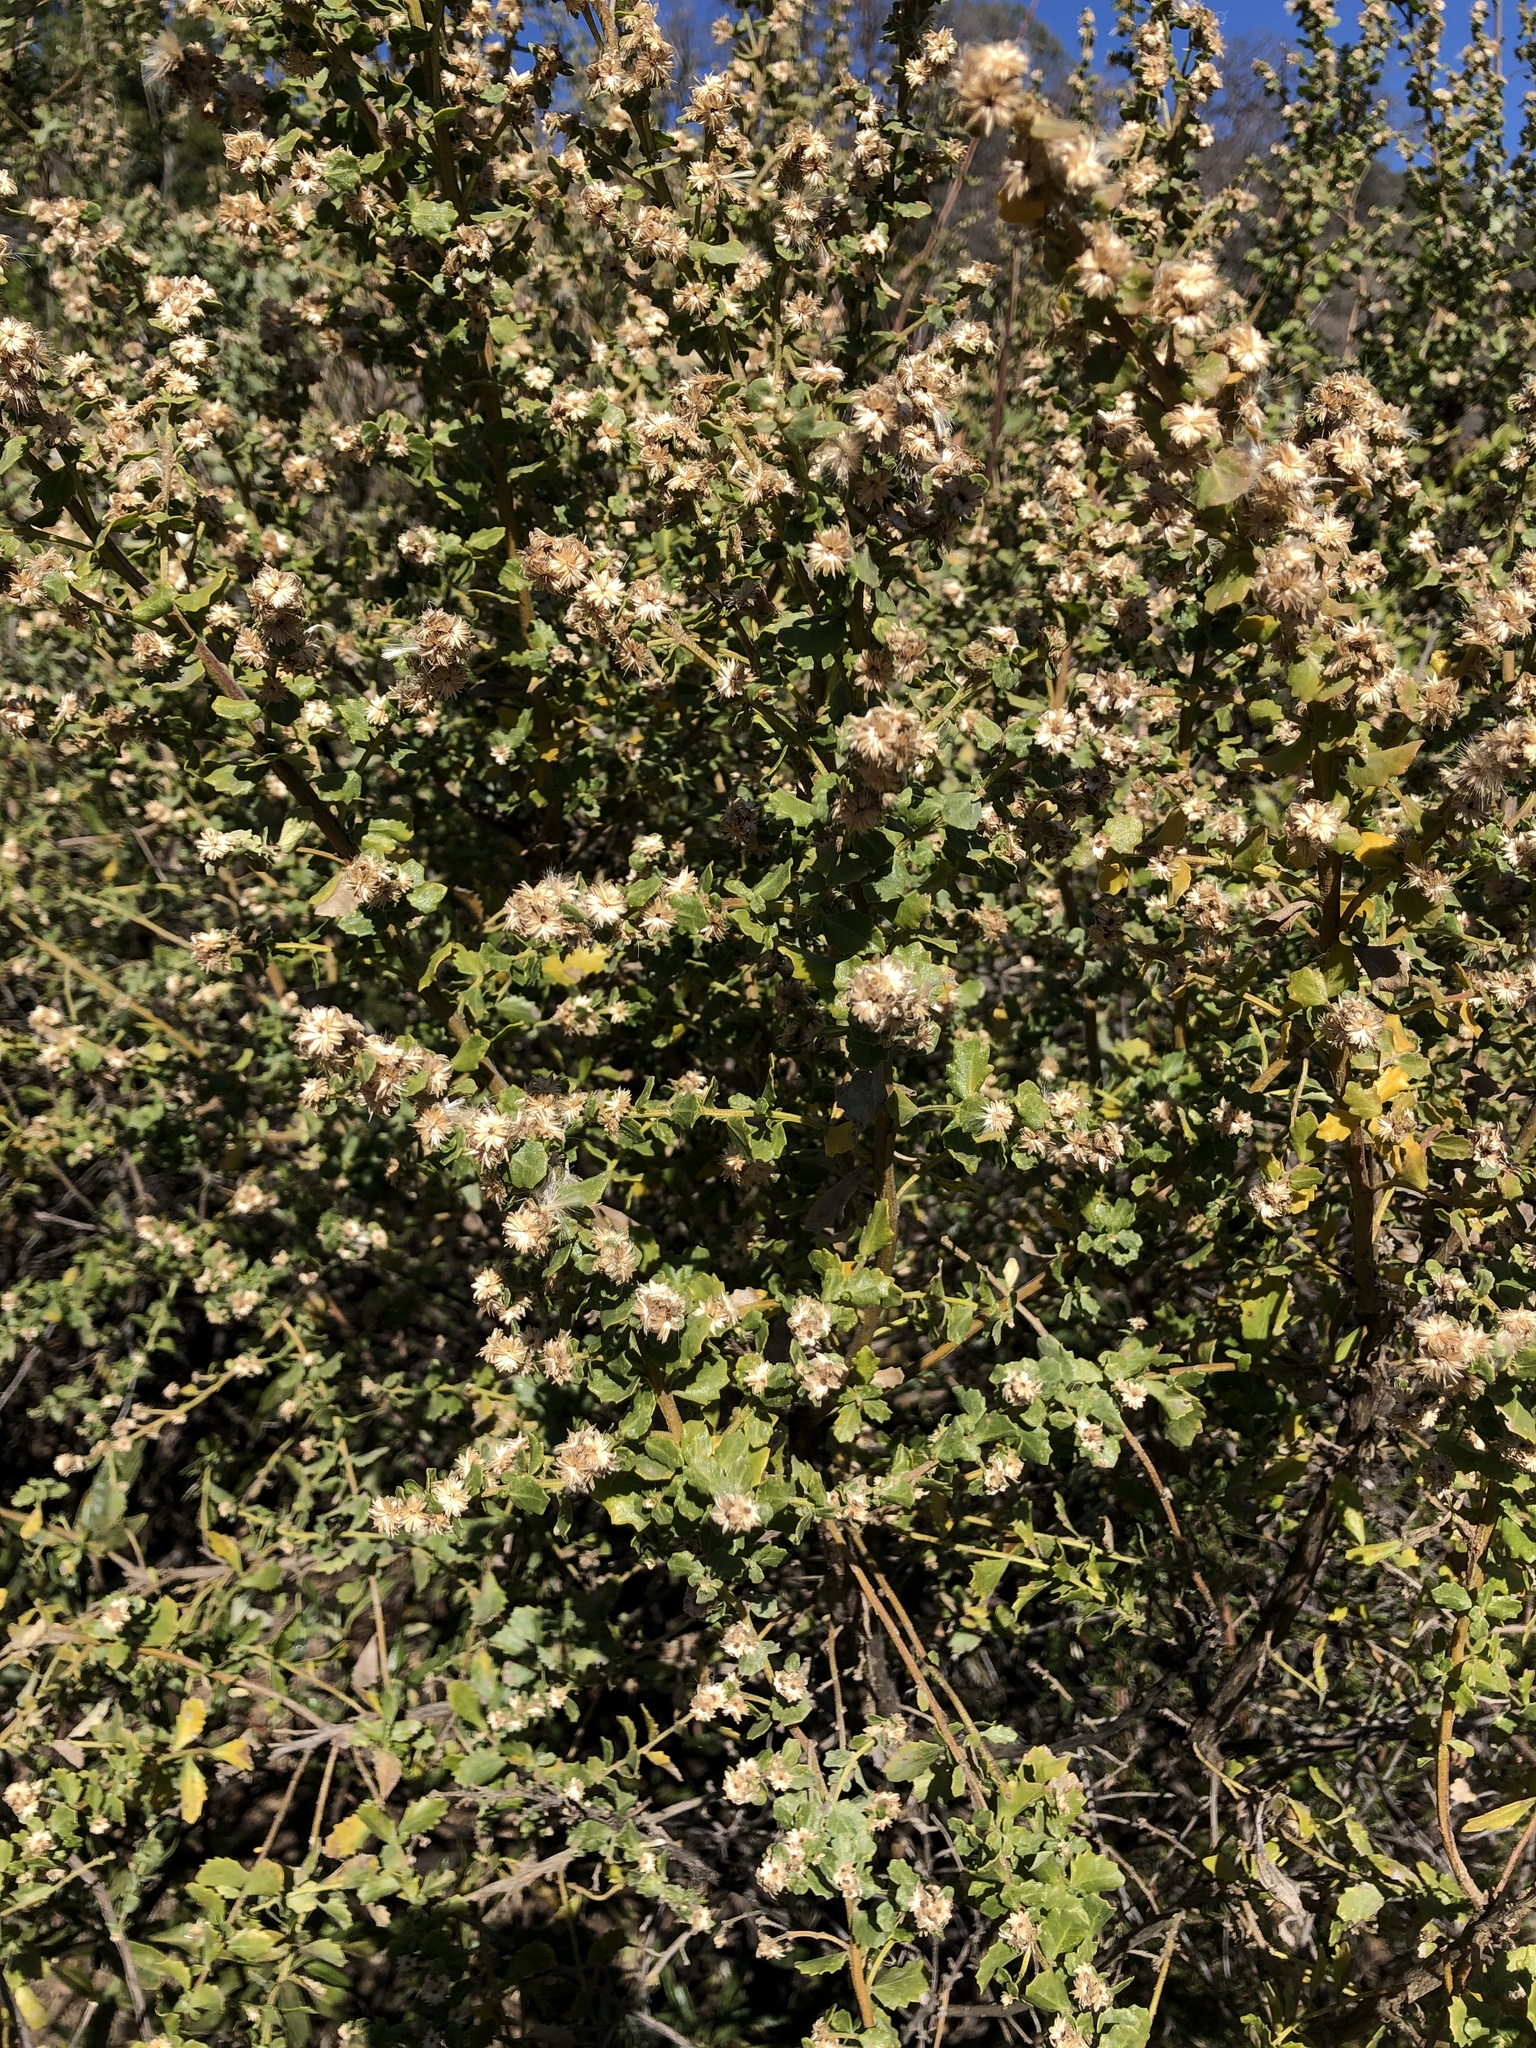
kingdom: Plantae
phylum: Tracheophyta
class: Magnoliopsida
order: Asterales
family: Asteraceae
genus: Baccharis
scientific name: Baccharis pilularis
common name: Coyotebrush
